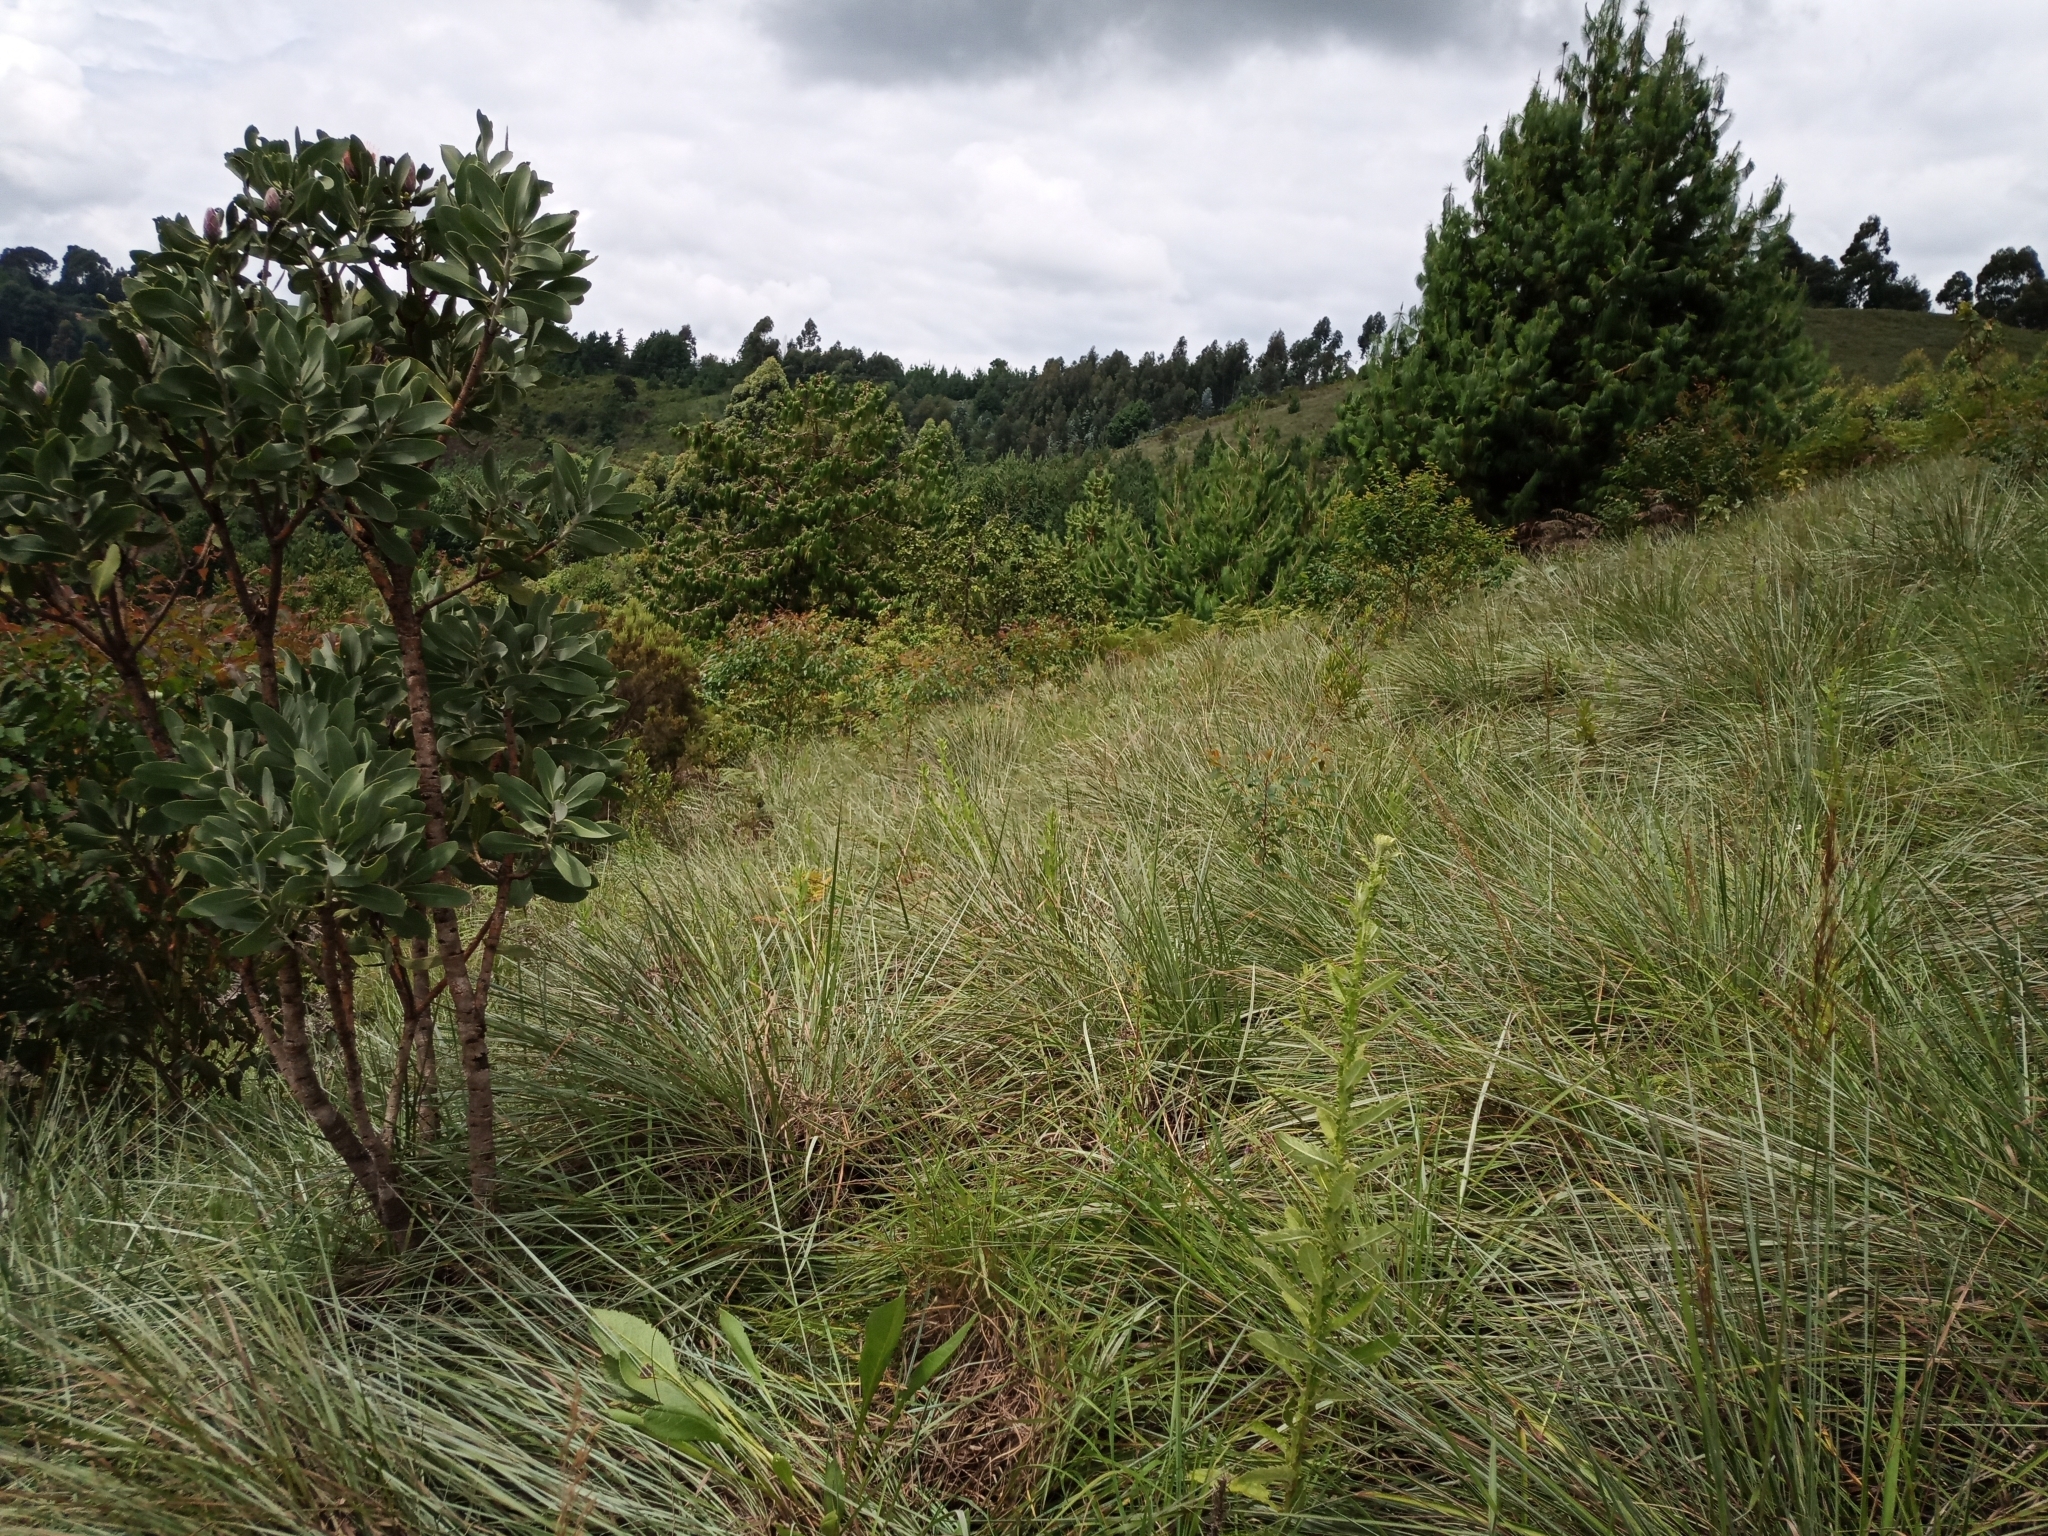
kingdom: Plantae
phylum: Tracheophyta
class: Magnoliopsida
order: Proteales
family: Proteaceae
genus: Protea
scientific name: Protea caffra
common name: Common sugarbush
